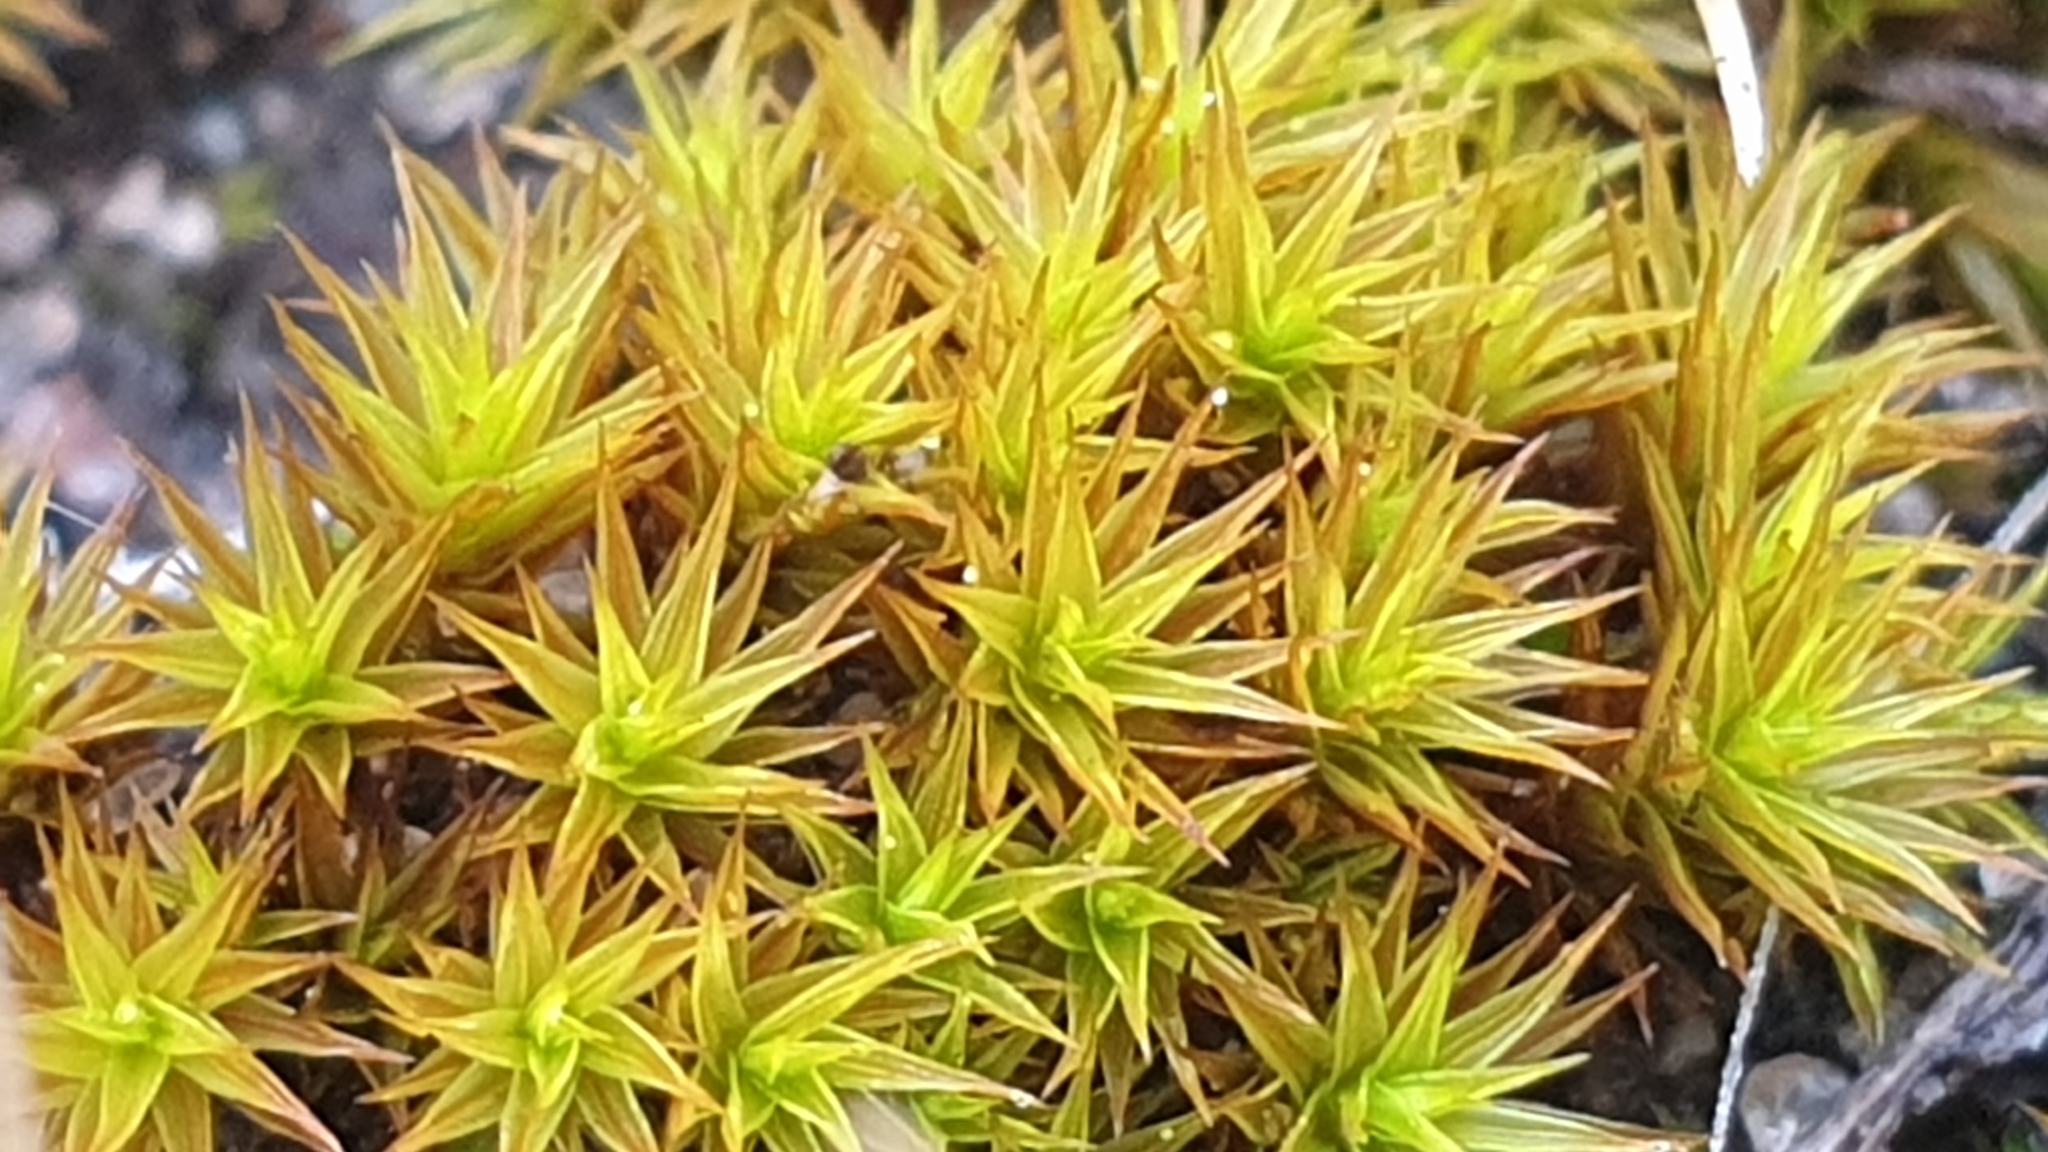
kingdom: Plantae
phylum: Bryophyta
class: Bryopsida
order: Pottiales
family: Pottiaceae
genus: Gertrudiella
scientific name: Gertrudiella torquata
